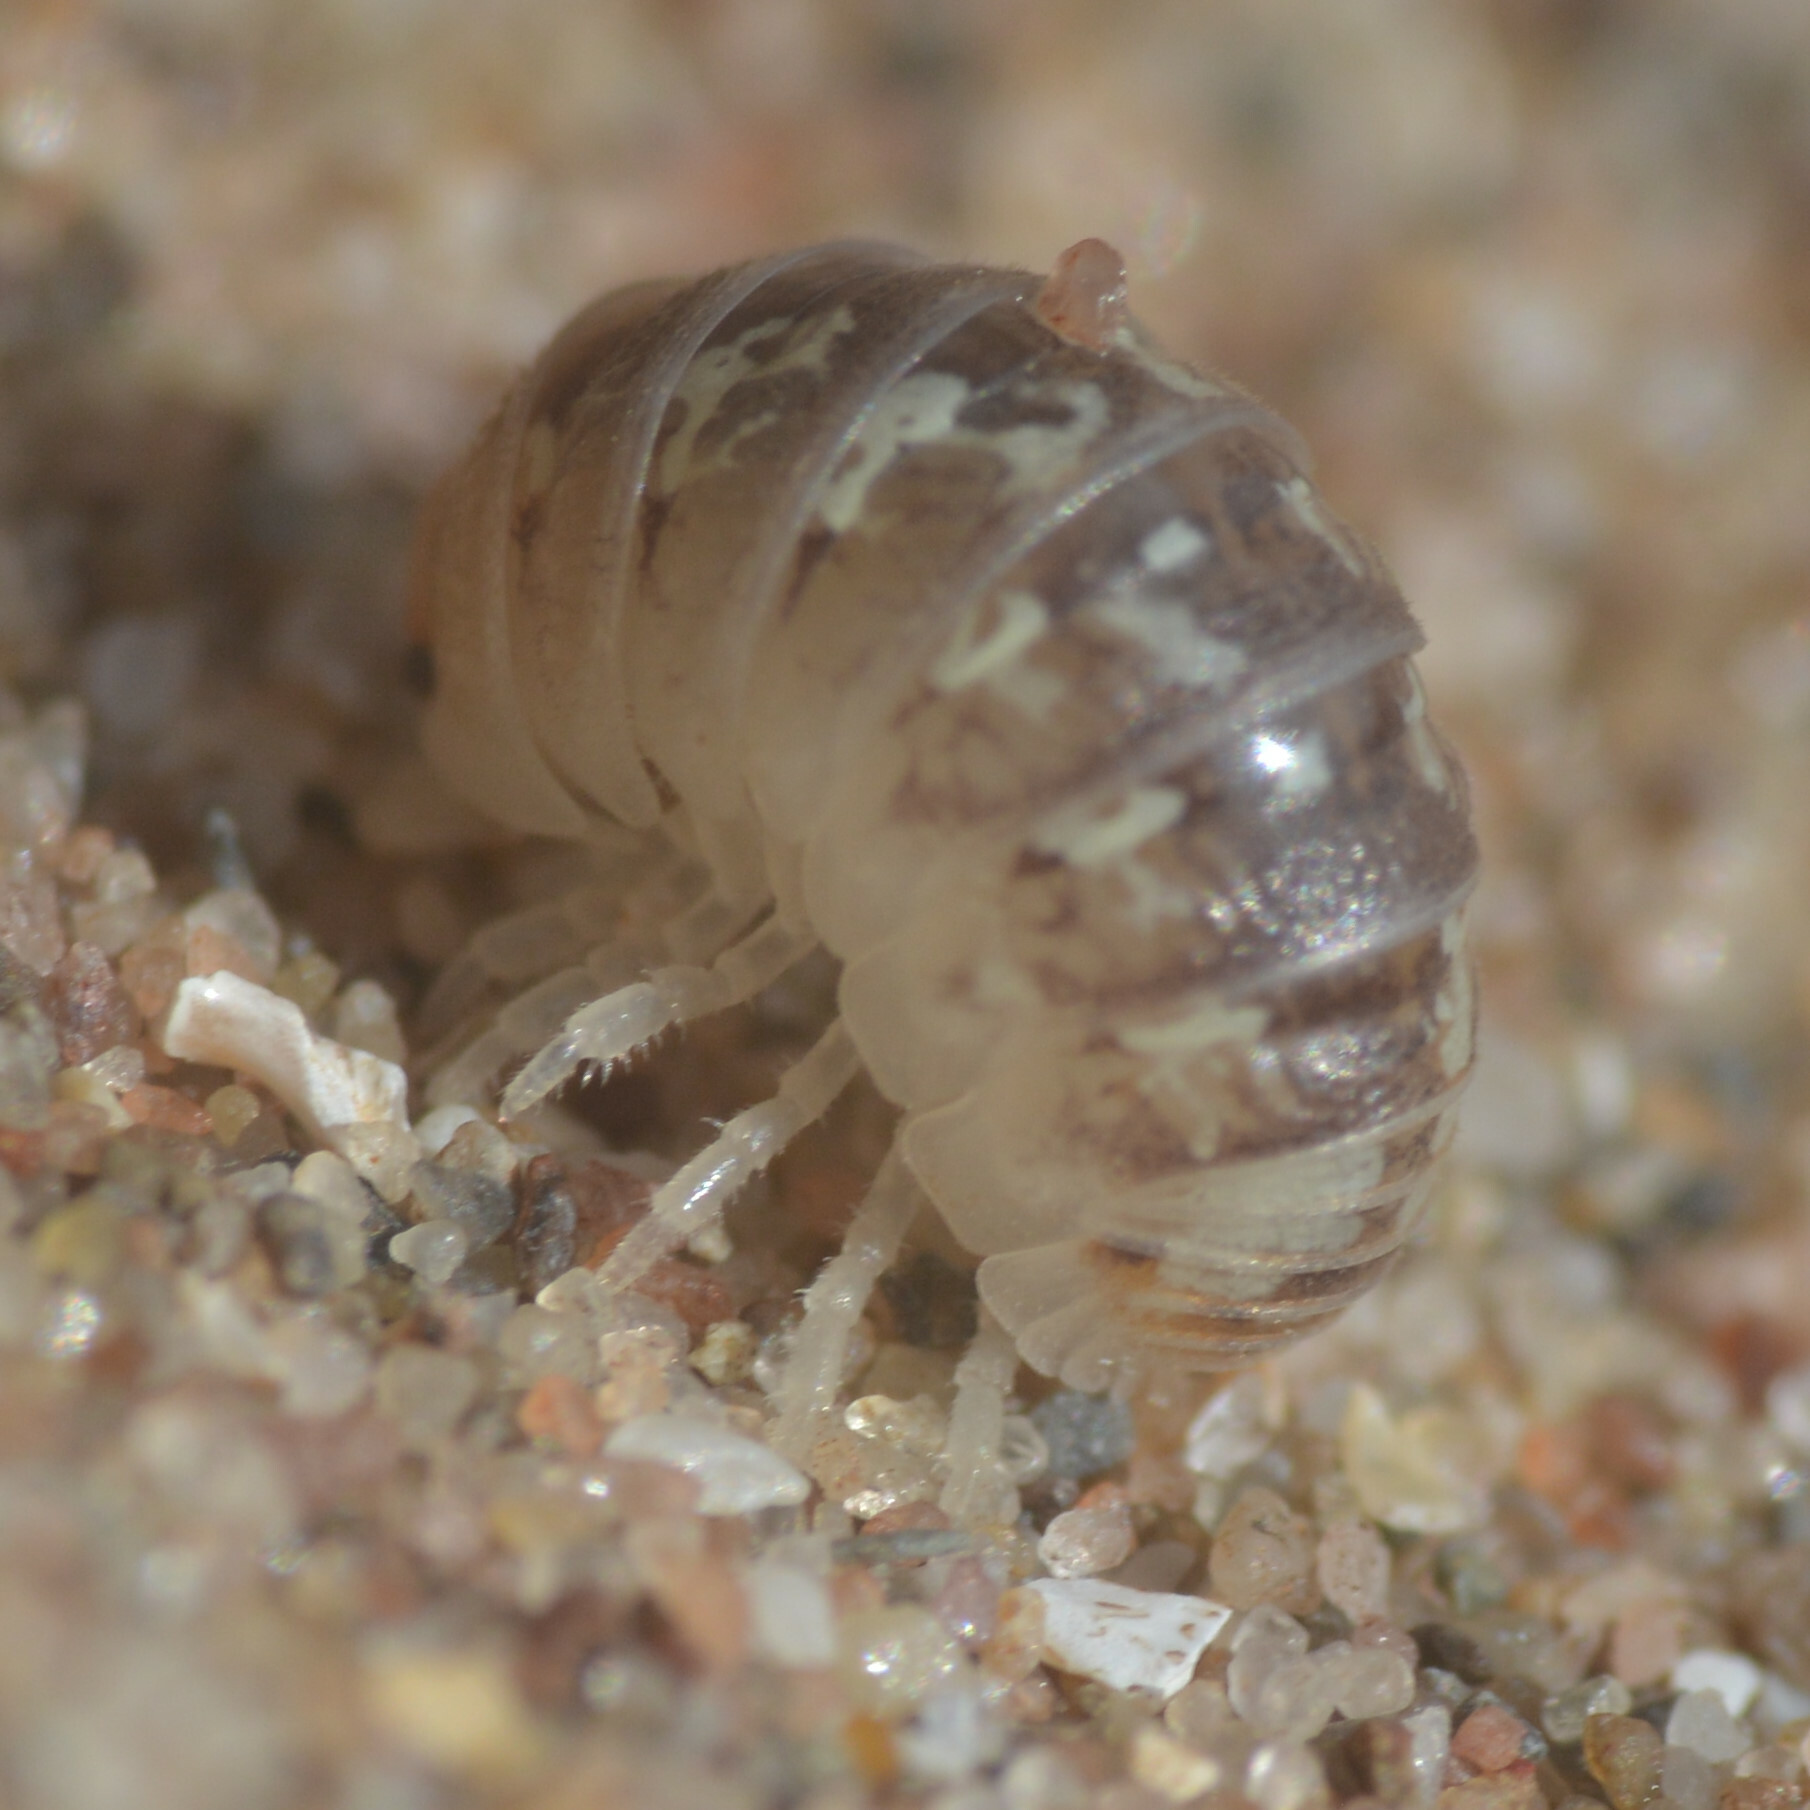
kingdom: Animalia
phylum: Arthropoda
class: Malacostraca
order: Isopoda
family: Armadillidiidae
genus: Armadillidium
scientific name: Armadillidium album
